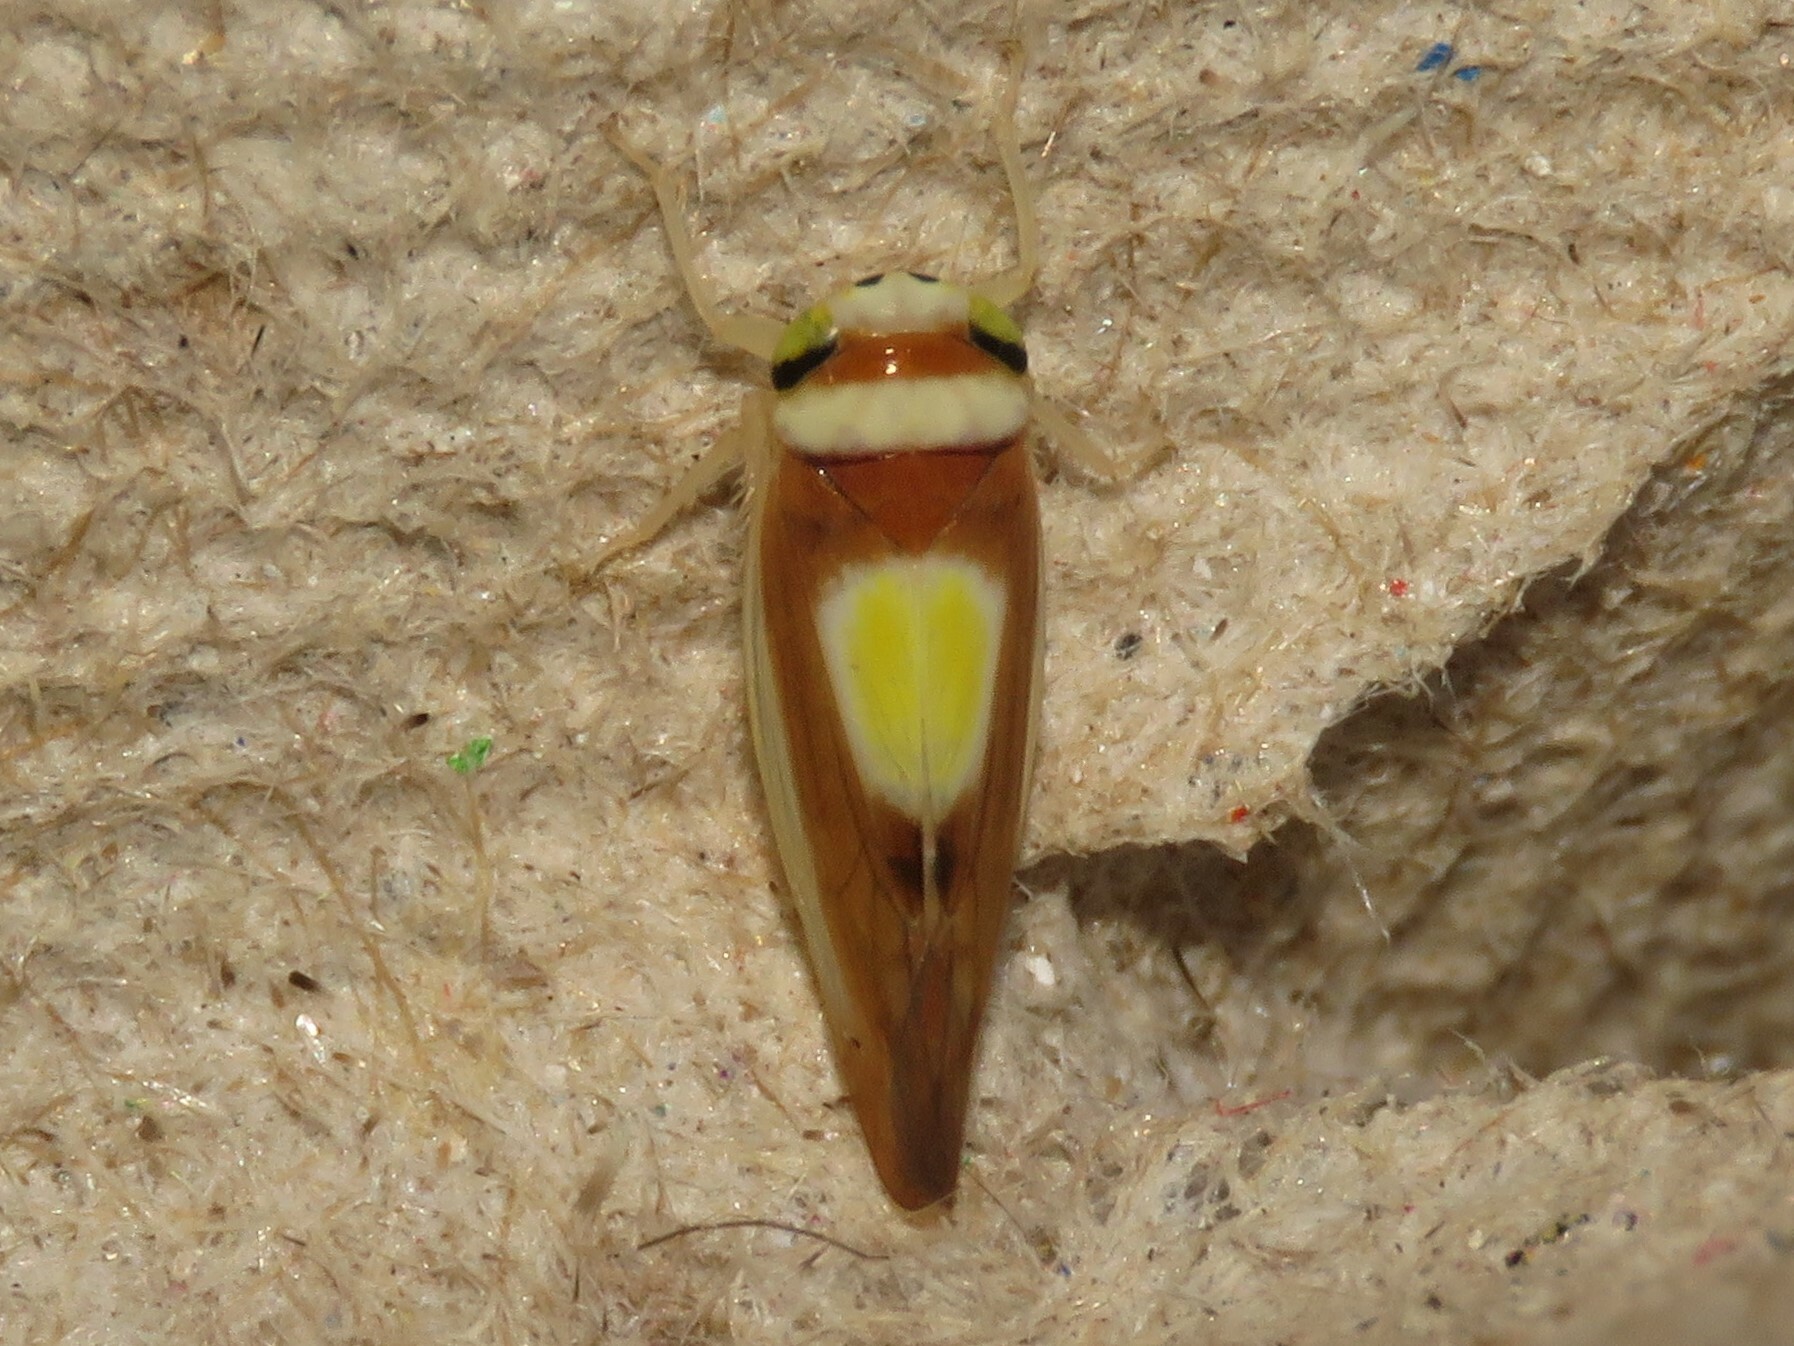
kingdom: Animalia
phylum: Arthropoda
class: Insecta
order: Hemiptera
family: Cicadellidae
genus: Colladonus
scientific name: Colladonus clitellarius
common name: The saddleback leafhopper
